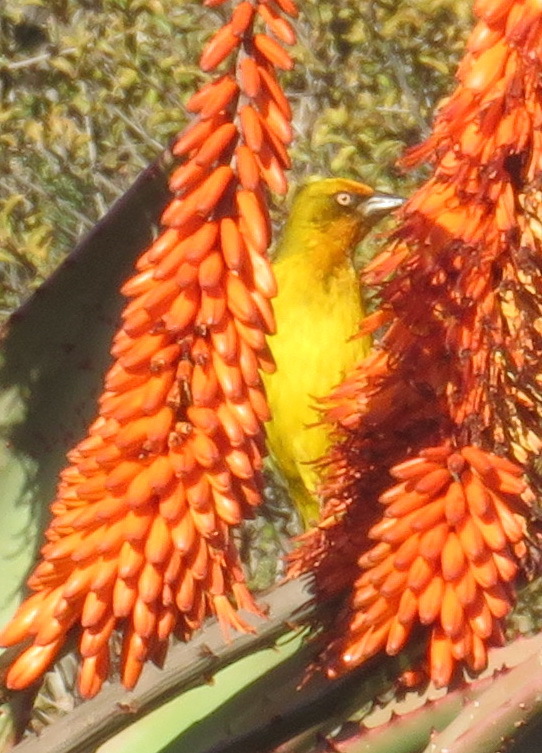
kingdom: Animalia
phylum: Chordata
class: Aves
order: Passeriformes
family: Ploceidae
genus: Ploceus
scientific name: Ploceus capensis
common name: Cape weaver
